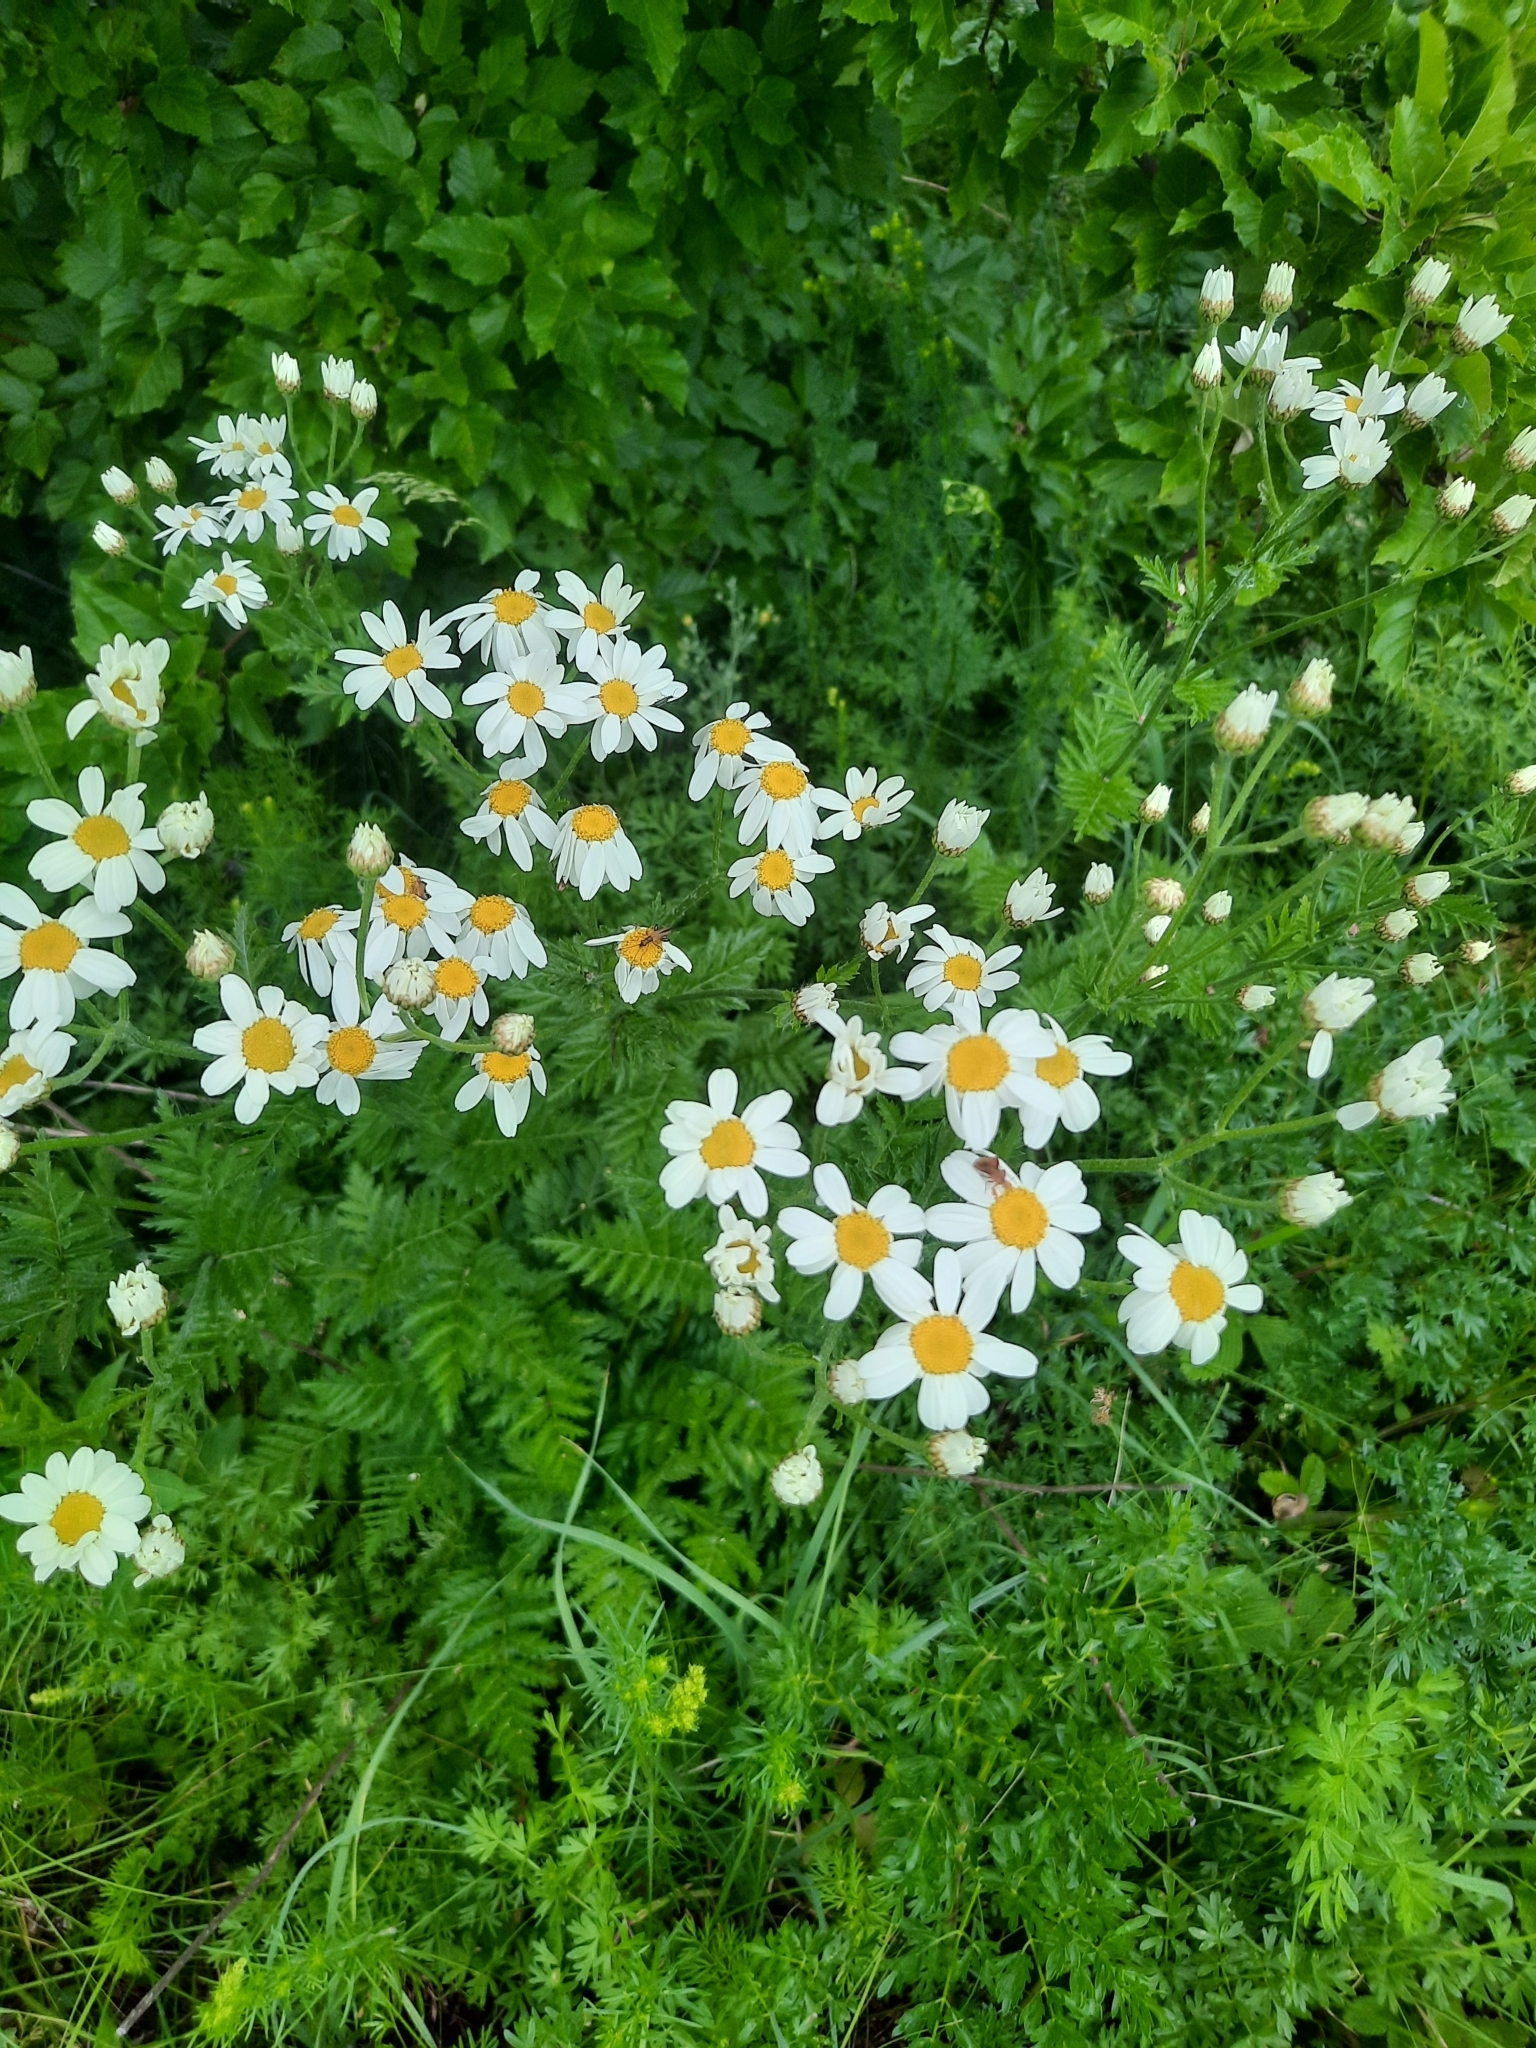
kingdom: Plantae
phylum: Tracheophyta
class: Magnoliopsida
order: Asterales
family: Asteraceae
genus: Tanacetum
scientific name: Tanacetum corymbosum
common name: Scentless feverfew
